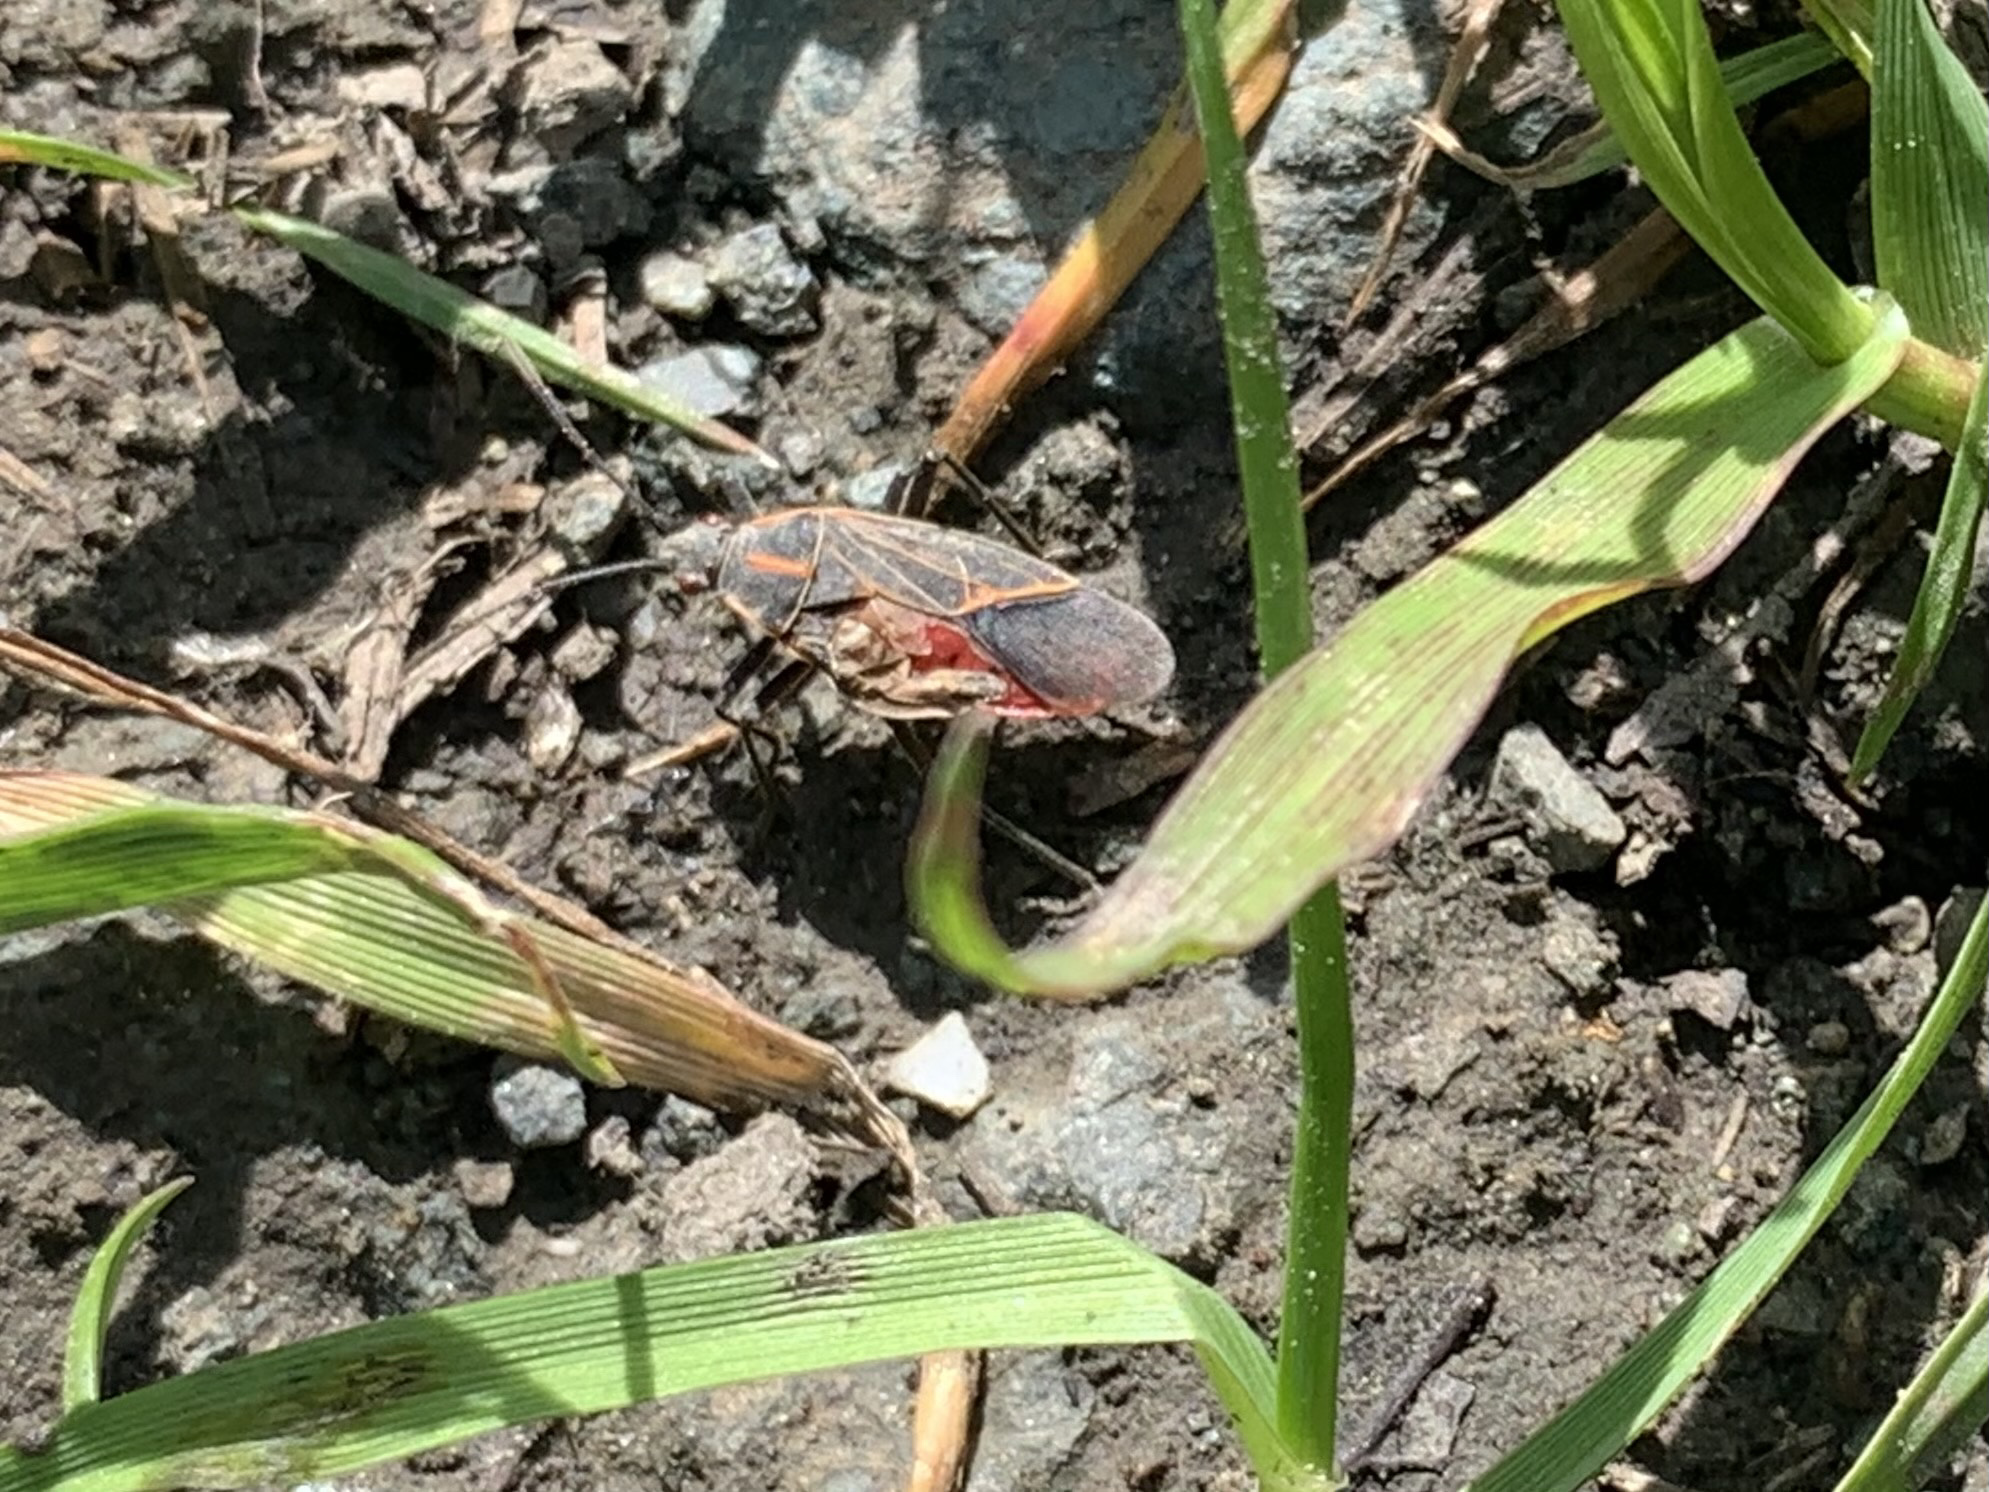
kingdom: Animalia
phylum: Arthropoda
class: Insecta
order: Hemiptera
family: Rhopalidae
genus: Boisea
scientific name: Boisea rubrolineata
